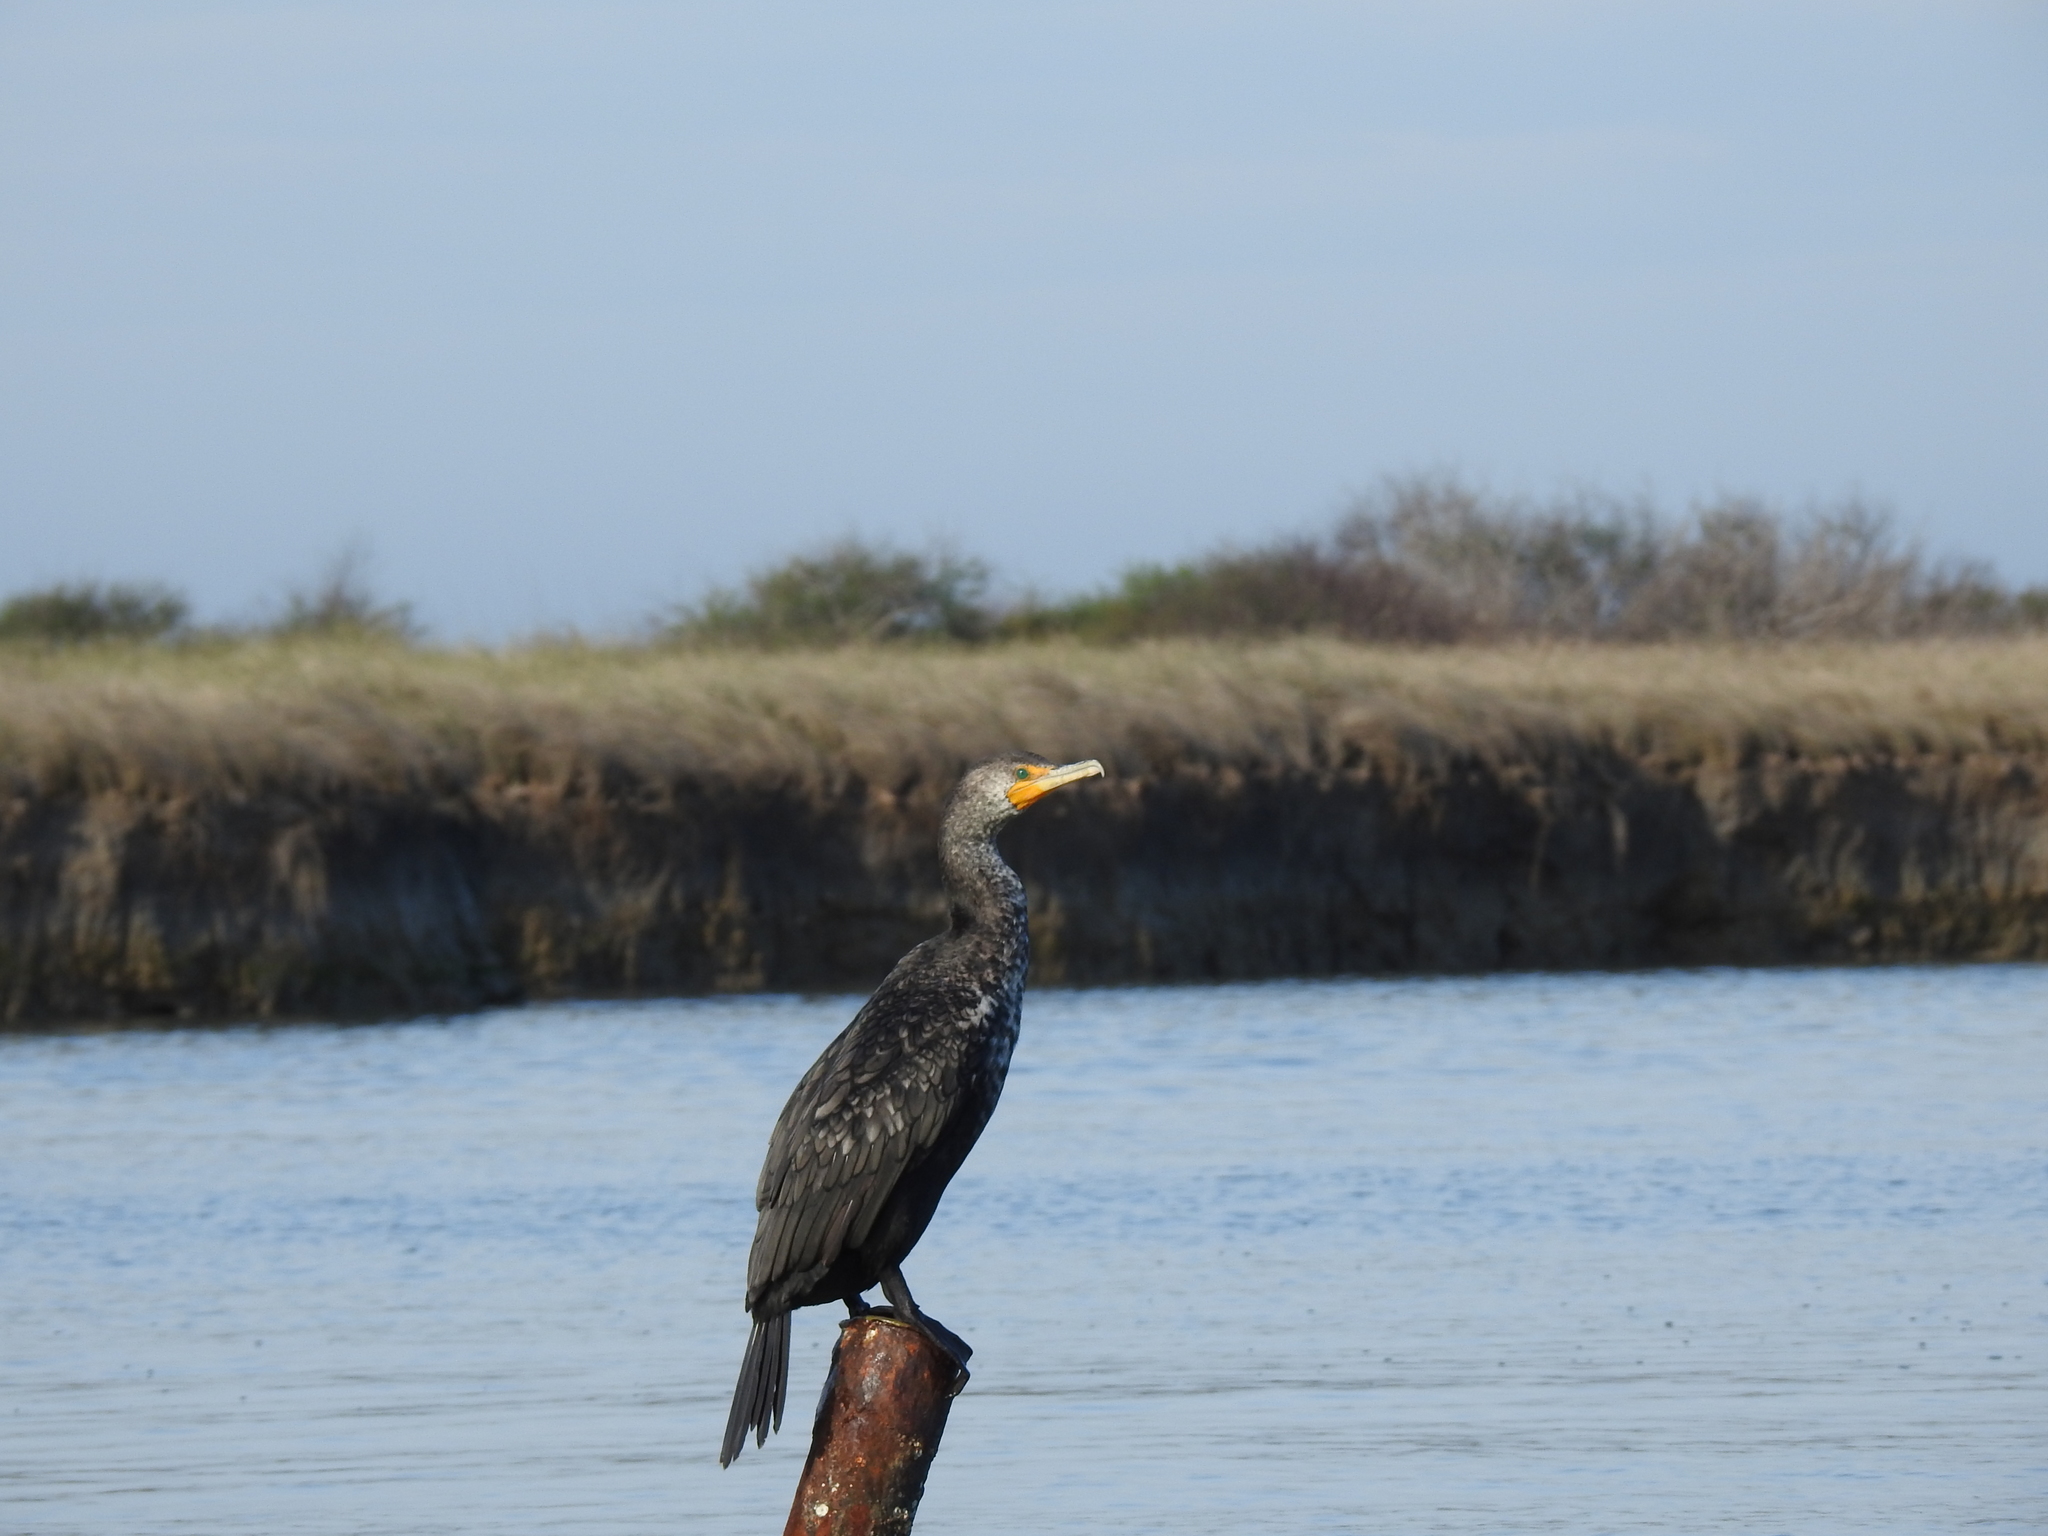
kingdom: Animalia
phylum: Chordata
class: Aves
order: Suliformes
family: Phalacrocoracidae
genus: Phalacrocorax
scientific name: Phalacrocorax auritus
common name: Double-crested cormorant
